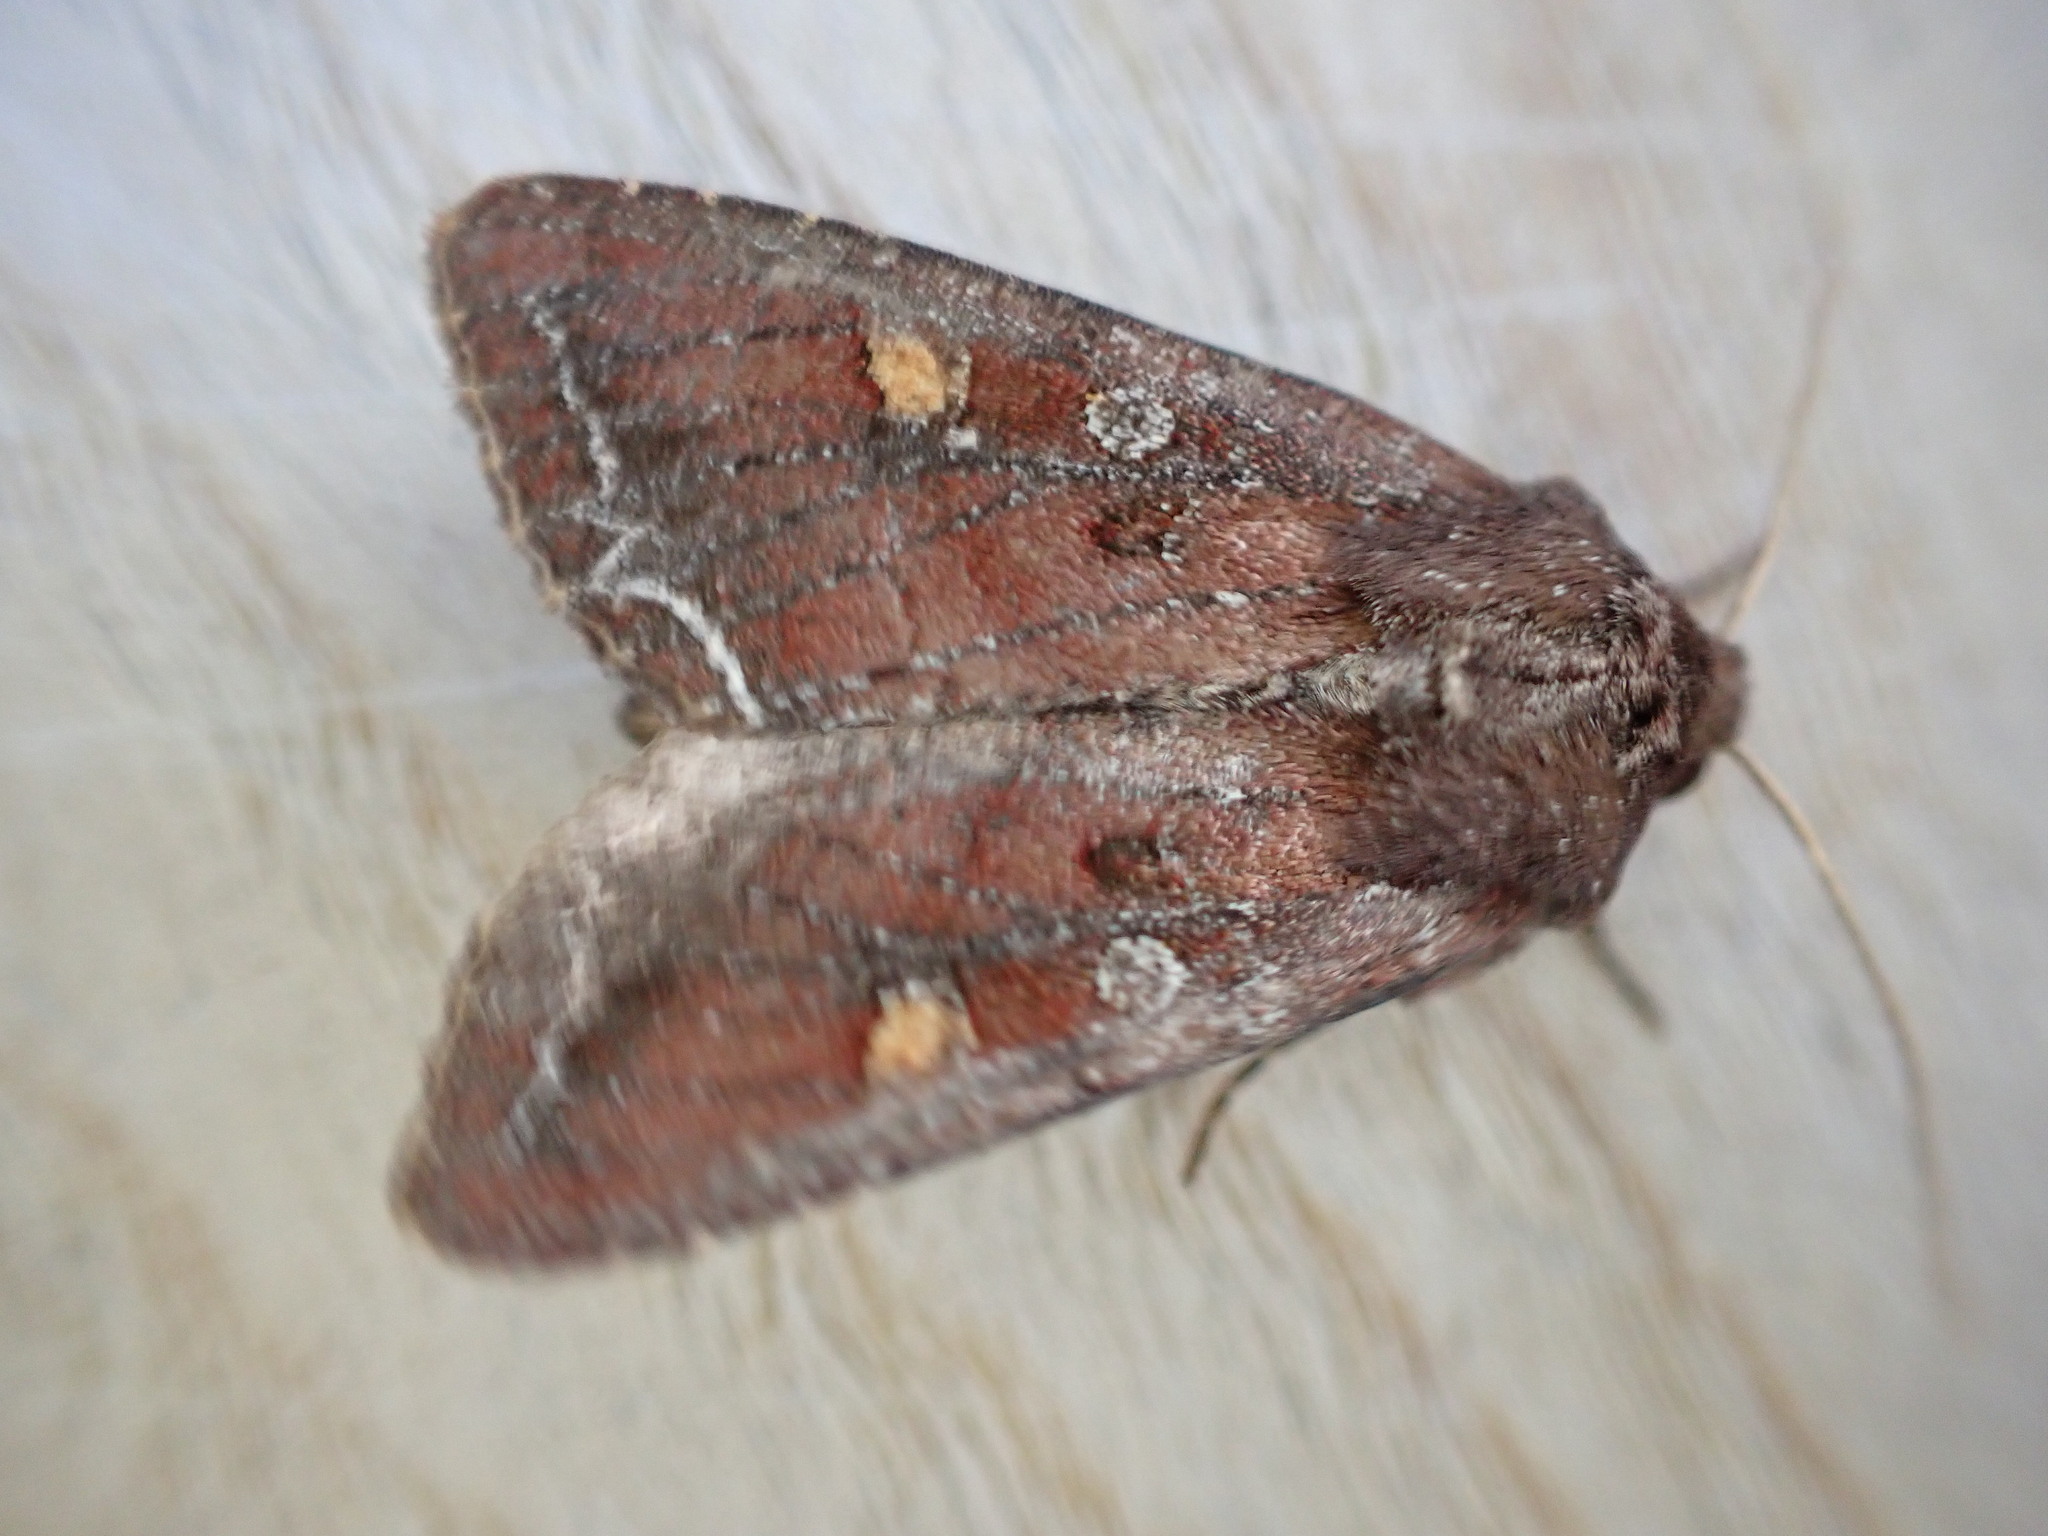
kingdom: Animalia
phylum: Arthropoda
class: Insecta
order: Lepidoptera
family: Noctuidae
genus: Lacanobia
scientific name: Lacanobia oleracea
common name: Bright-line brown-eye
